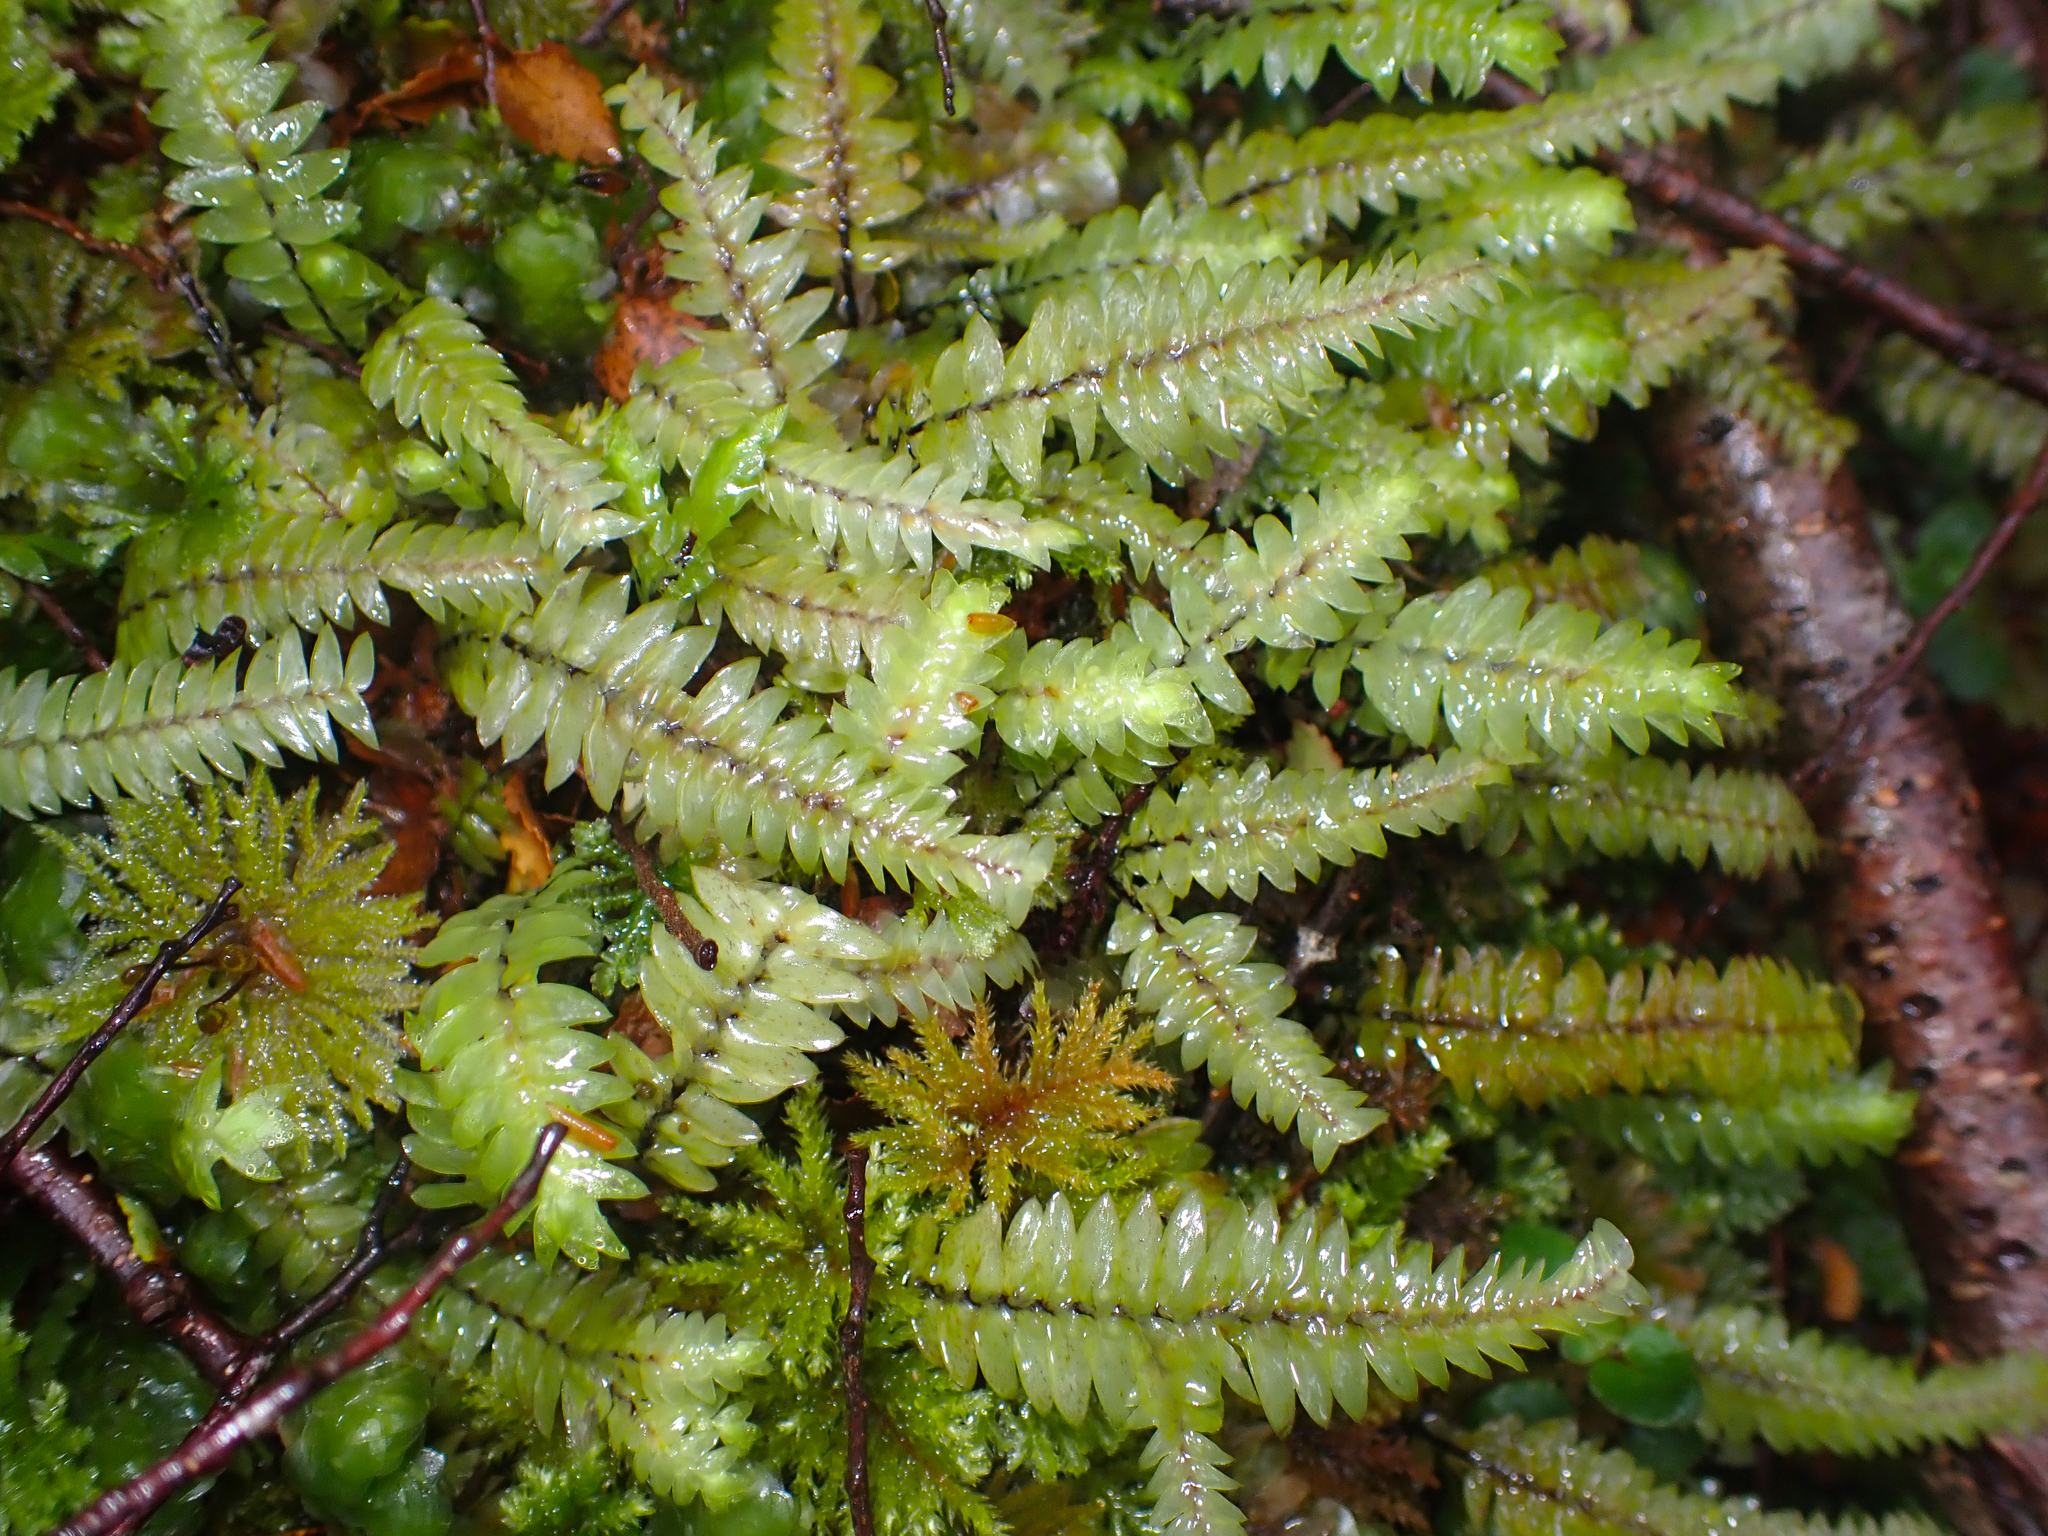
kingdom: Plantae
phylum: Bryophyta
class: Bryopsida
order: Hypopterygiales
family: Hypopterygiaceae
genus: Cyathophorum
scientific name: Cyathophorum bulbosum
